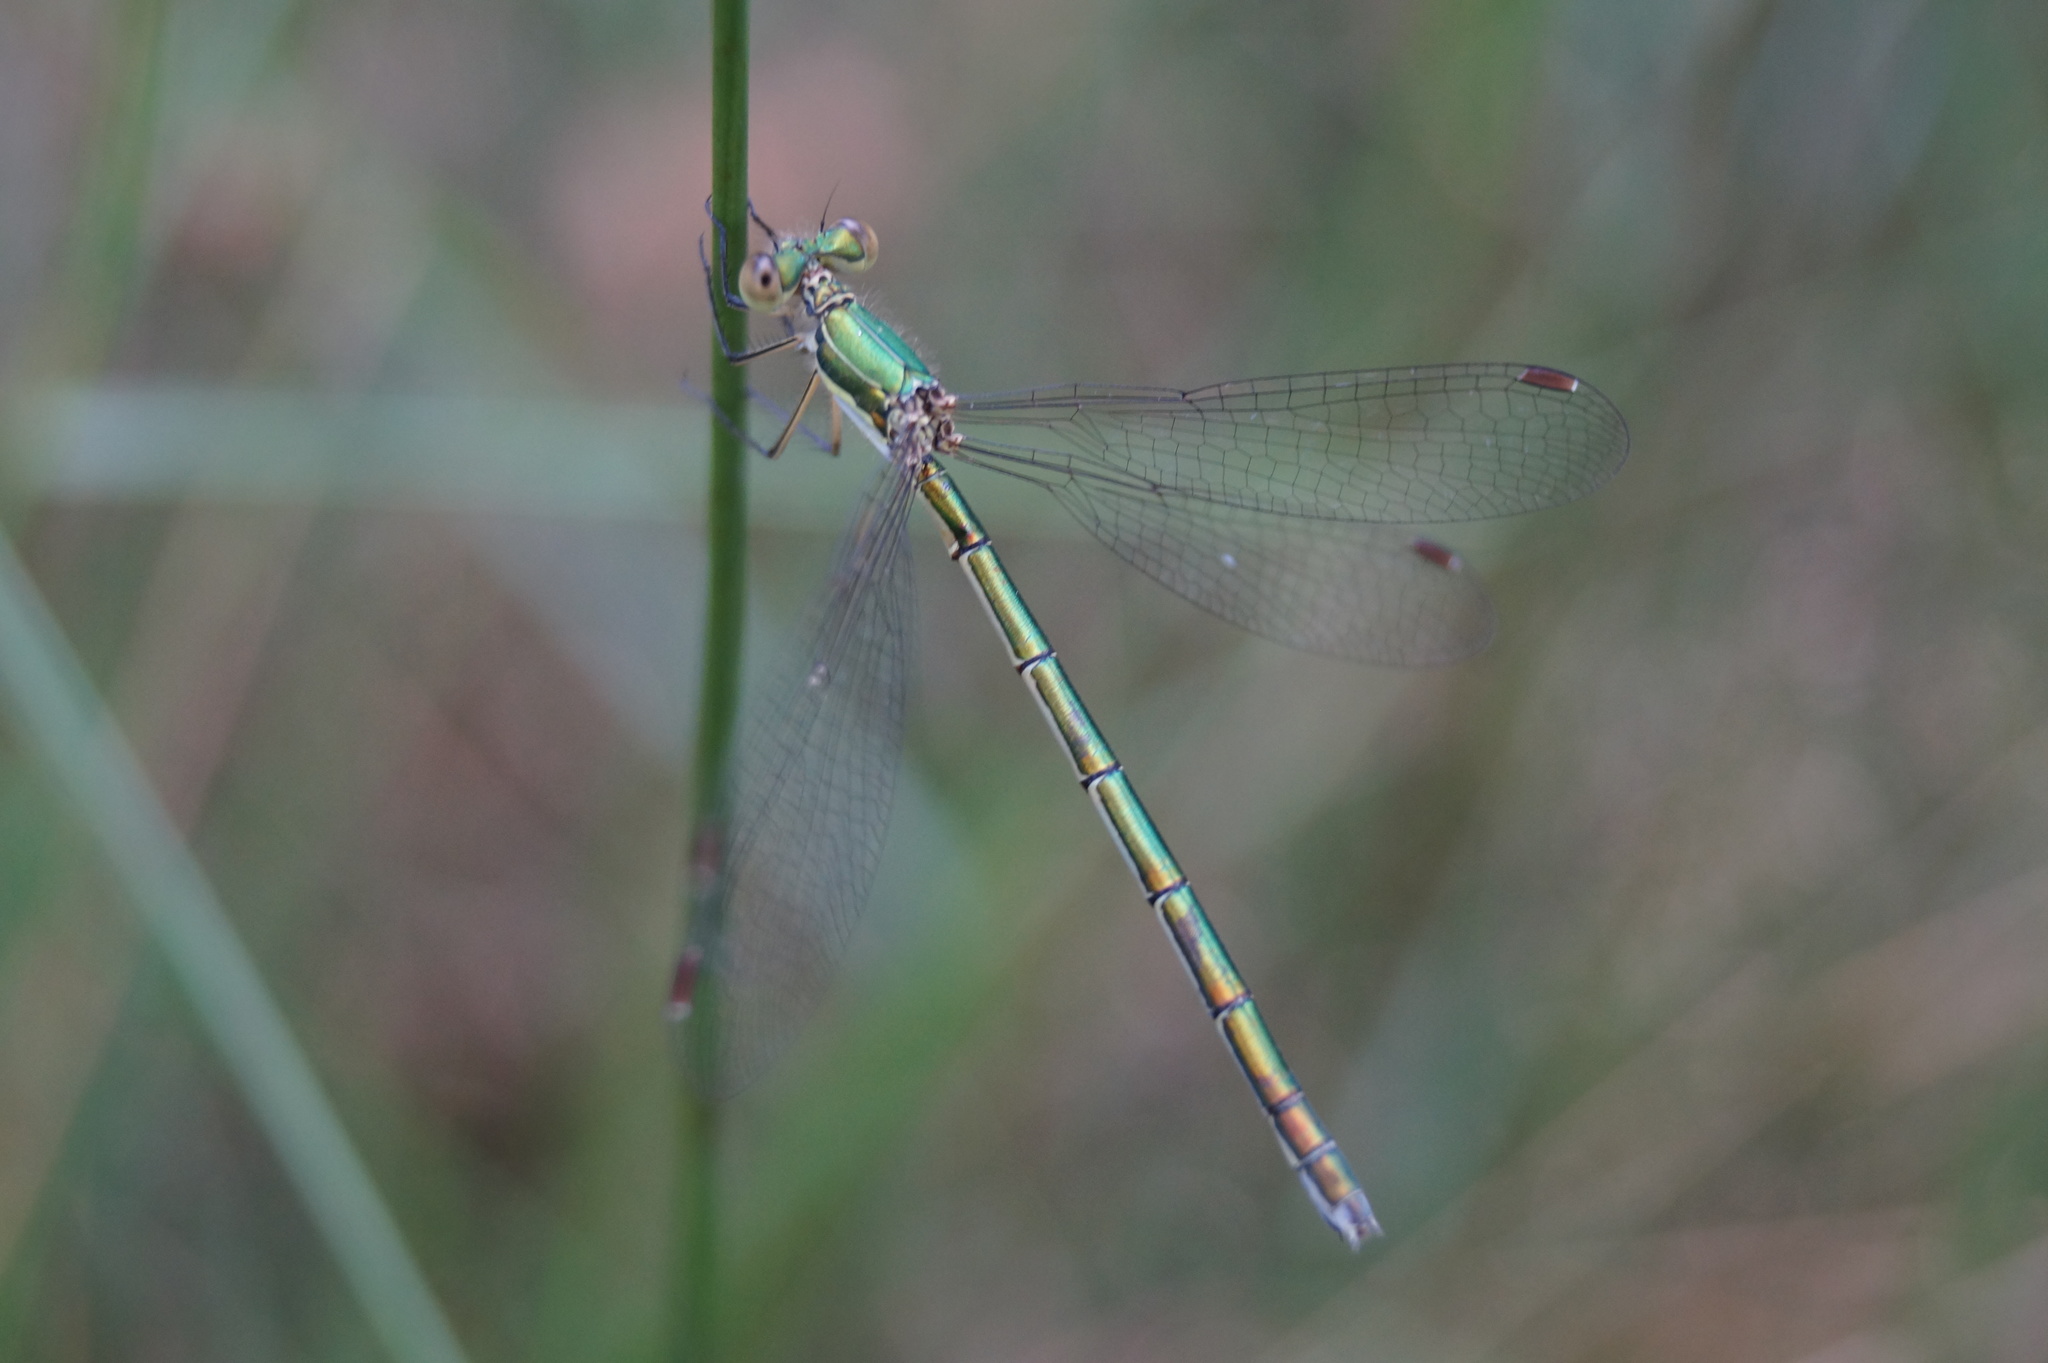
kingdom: Animalia
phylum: Arthropoda
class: Insecta
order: Odonata
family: Lestidae
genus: Lestes
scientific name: Lestes virens
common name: Small emerald spreadwing
